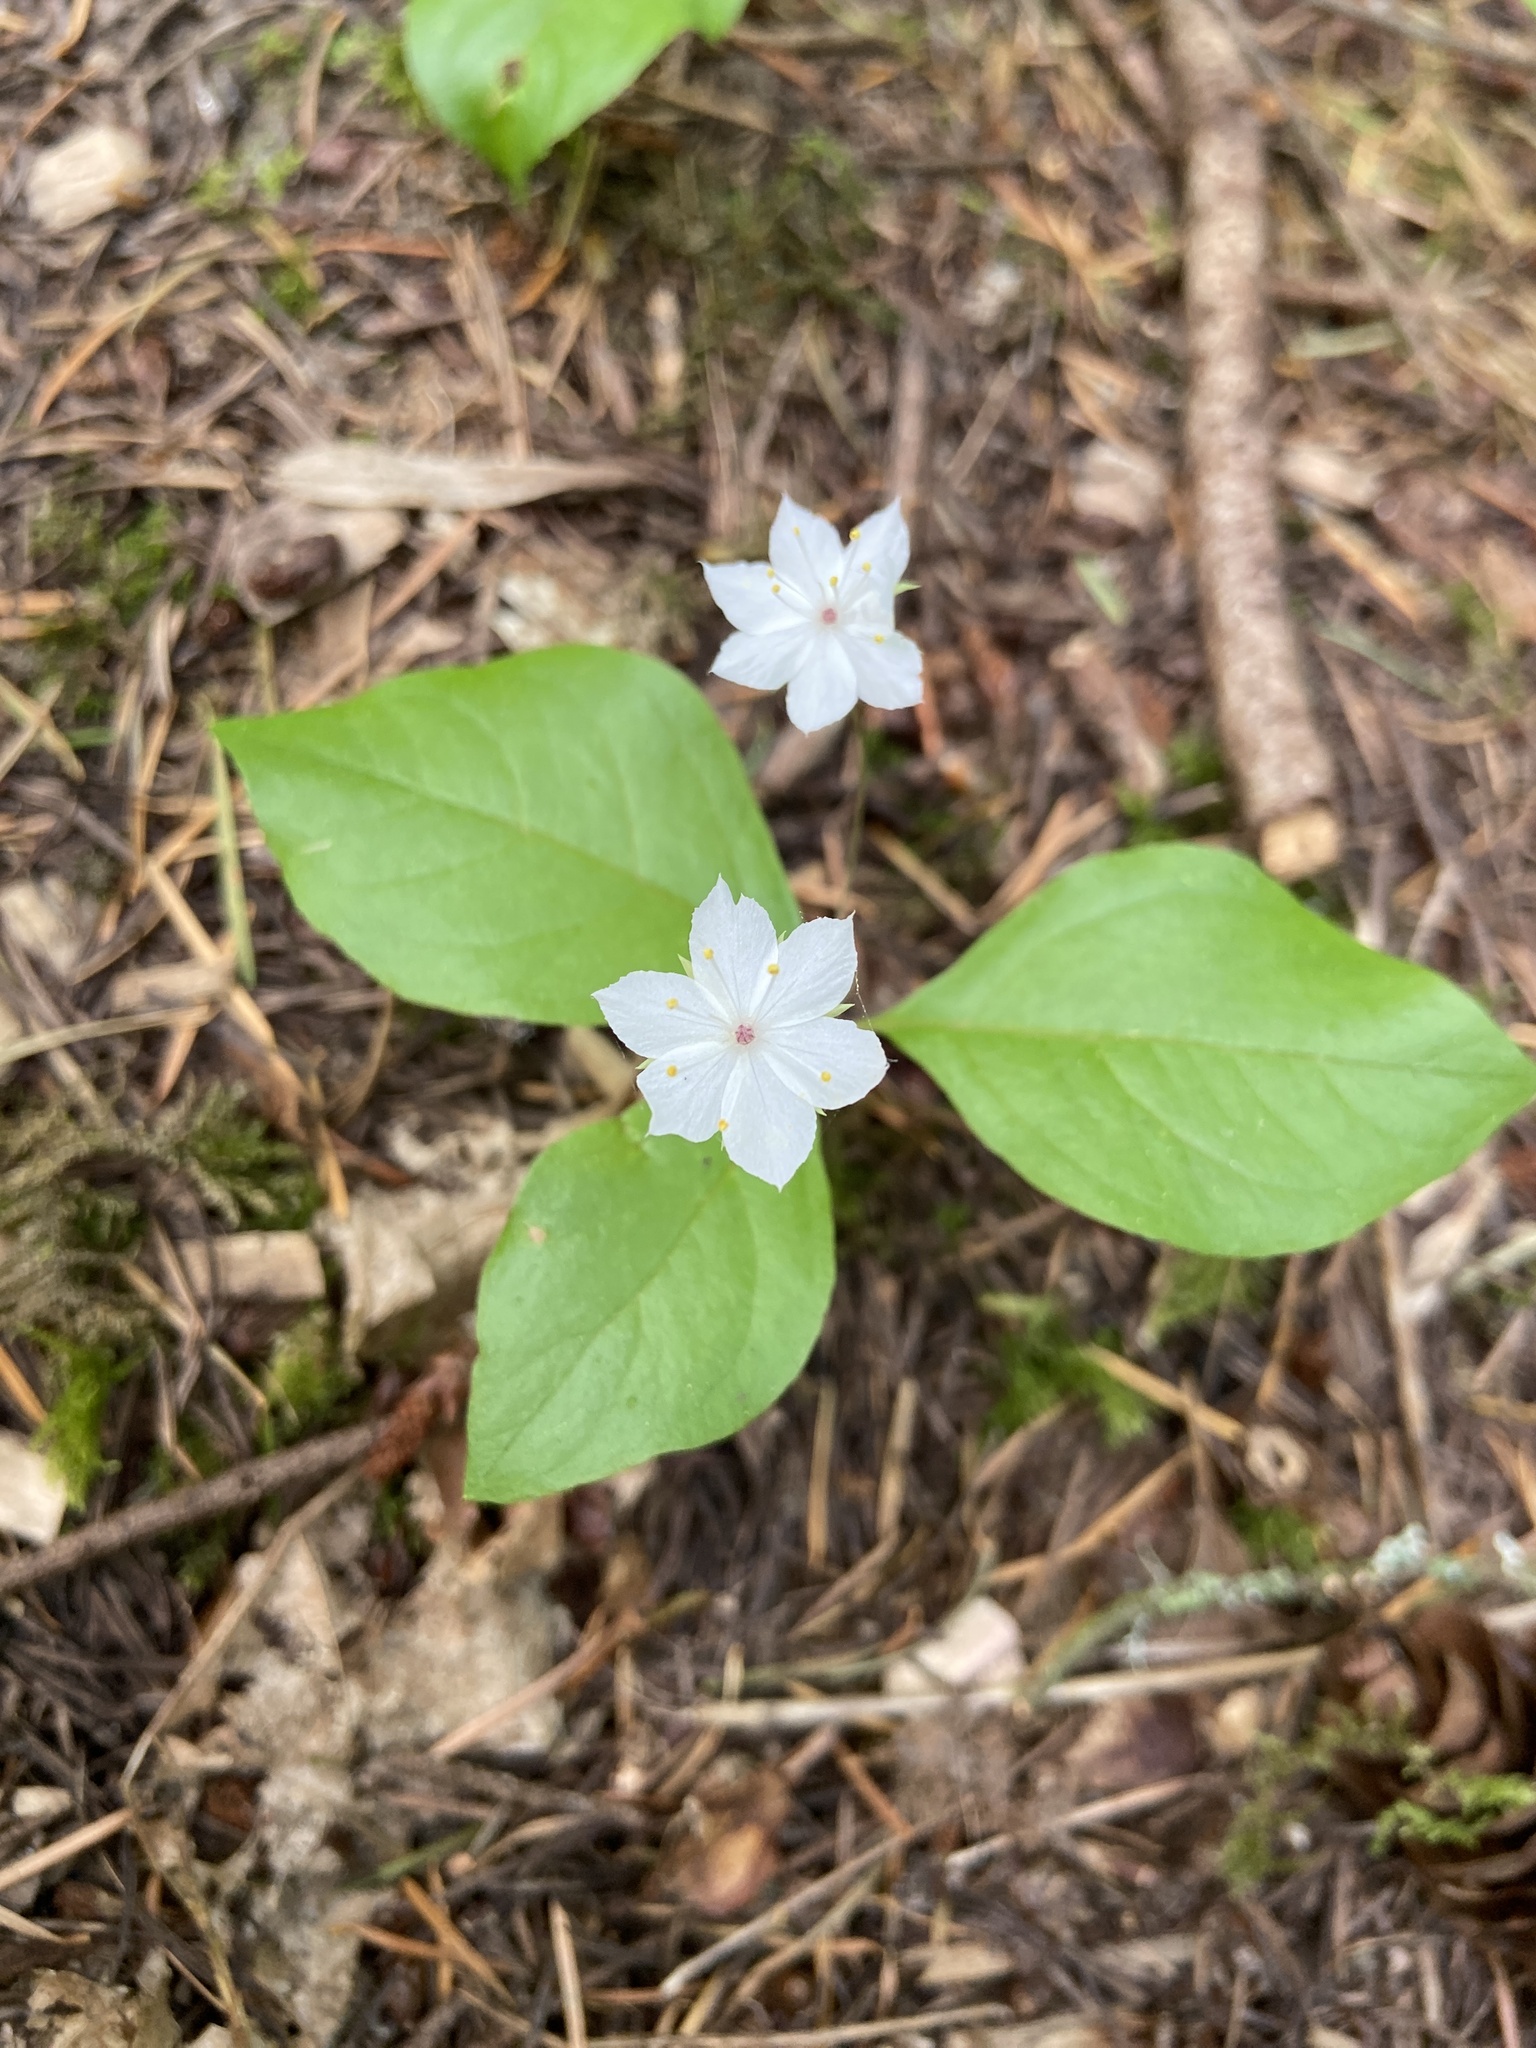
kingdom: Plantae
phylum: Tracheophyta
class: Magnoliopsida
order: Ericales
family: Primulaceae
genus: Lysimachia
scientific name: Lysimachia latifolia
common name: Pacific starflower
